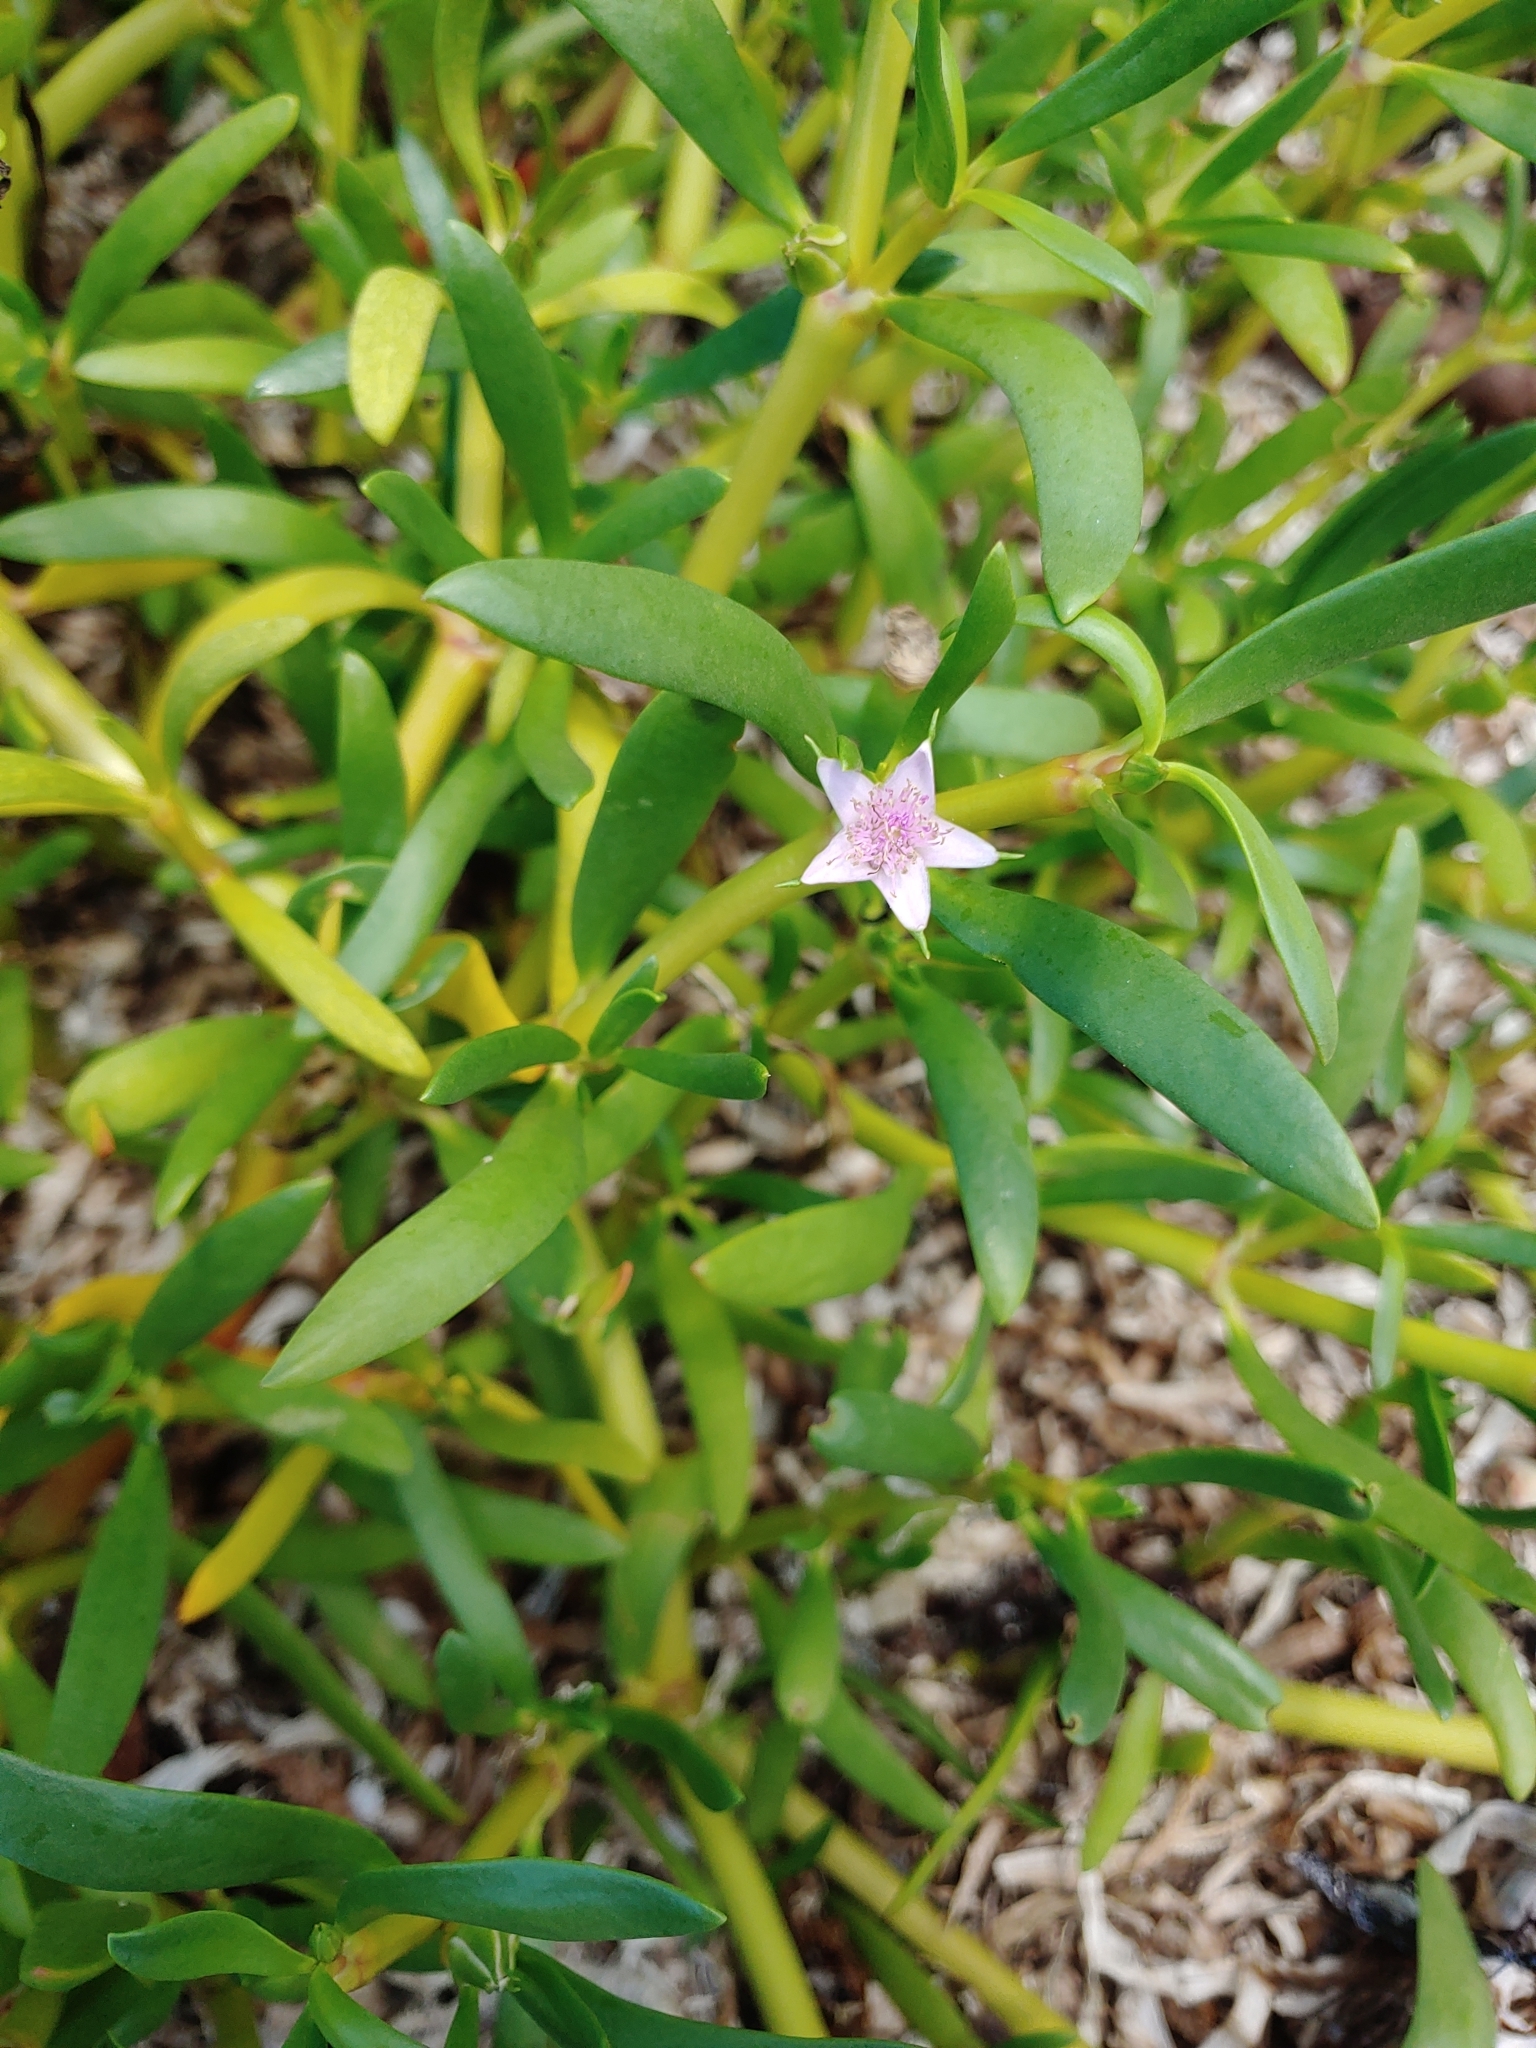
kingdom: Plantae
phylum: Tracheophyta
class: Magnoliopsida
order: Caryophyllales
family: Aizoaceae
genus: Sesuvium
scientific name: Sesuvium portulacastrum
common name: Sea-purslane
